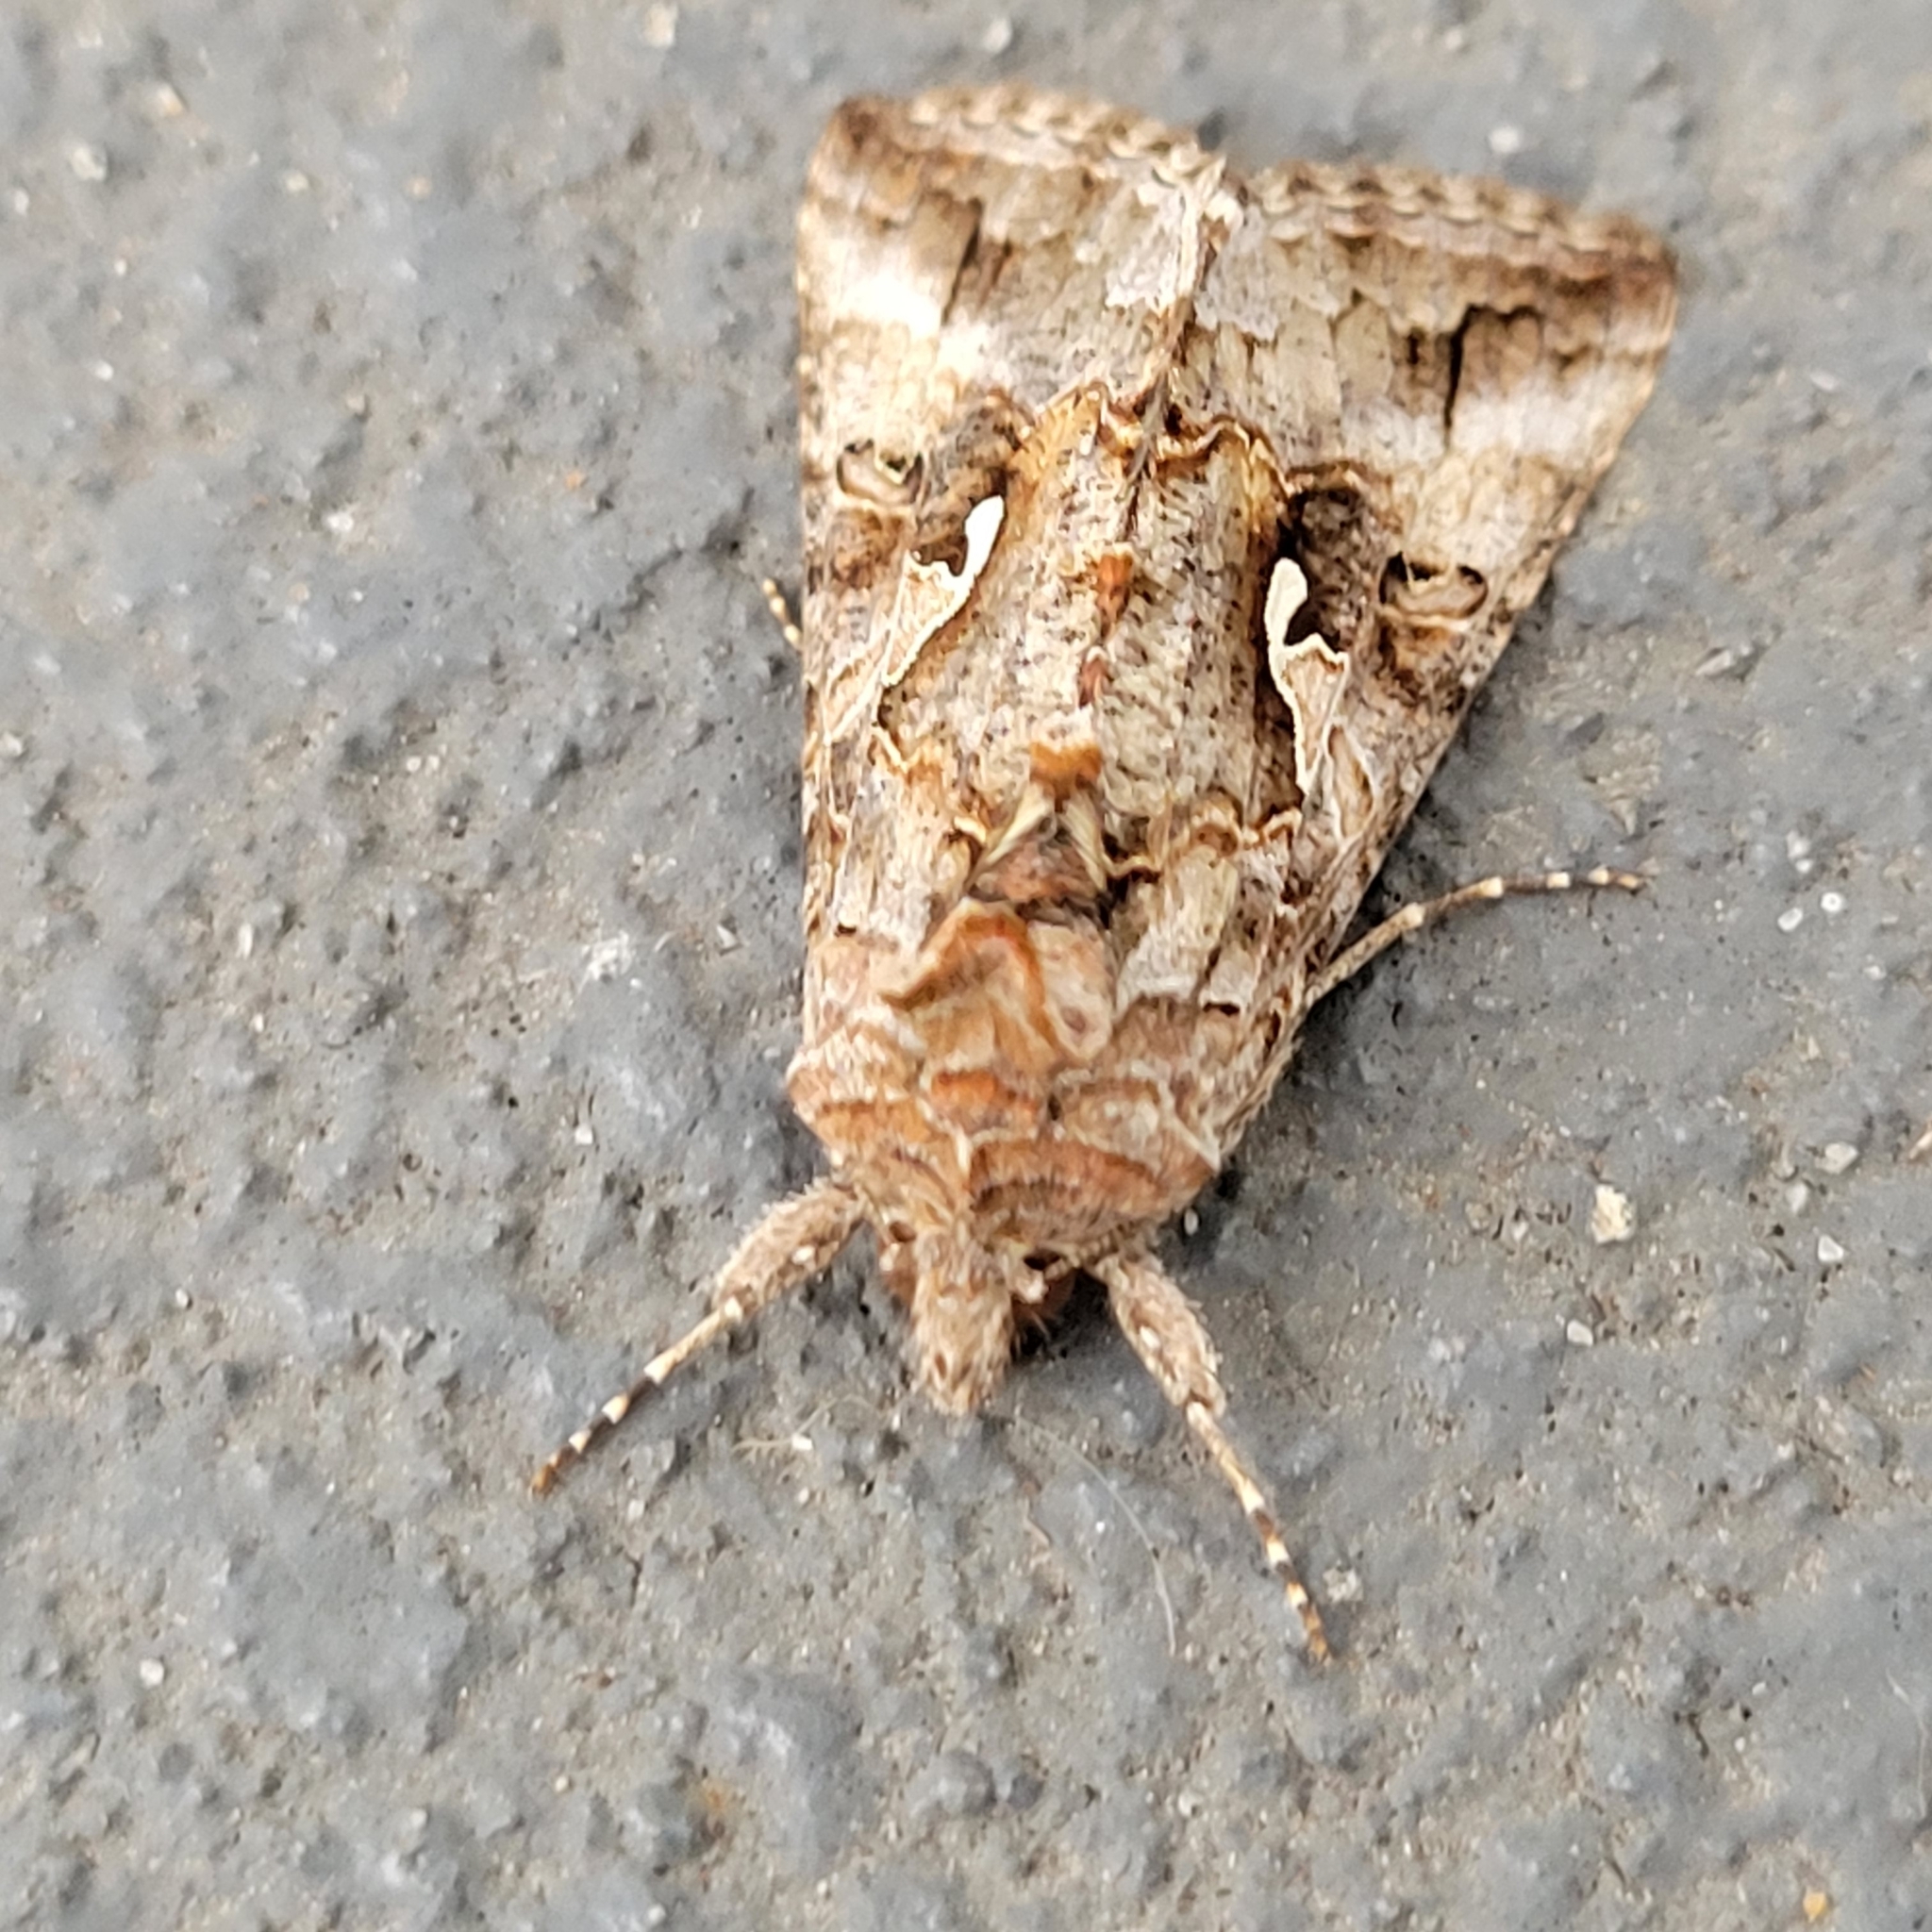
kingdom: Animalia
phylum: Arthropoda
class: Insecta
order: Lepidoptera
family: Noctuidae
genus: Autographa
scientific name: Autographa californica
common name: Alfalfa looper
